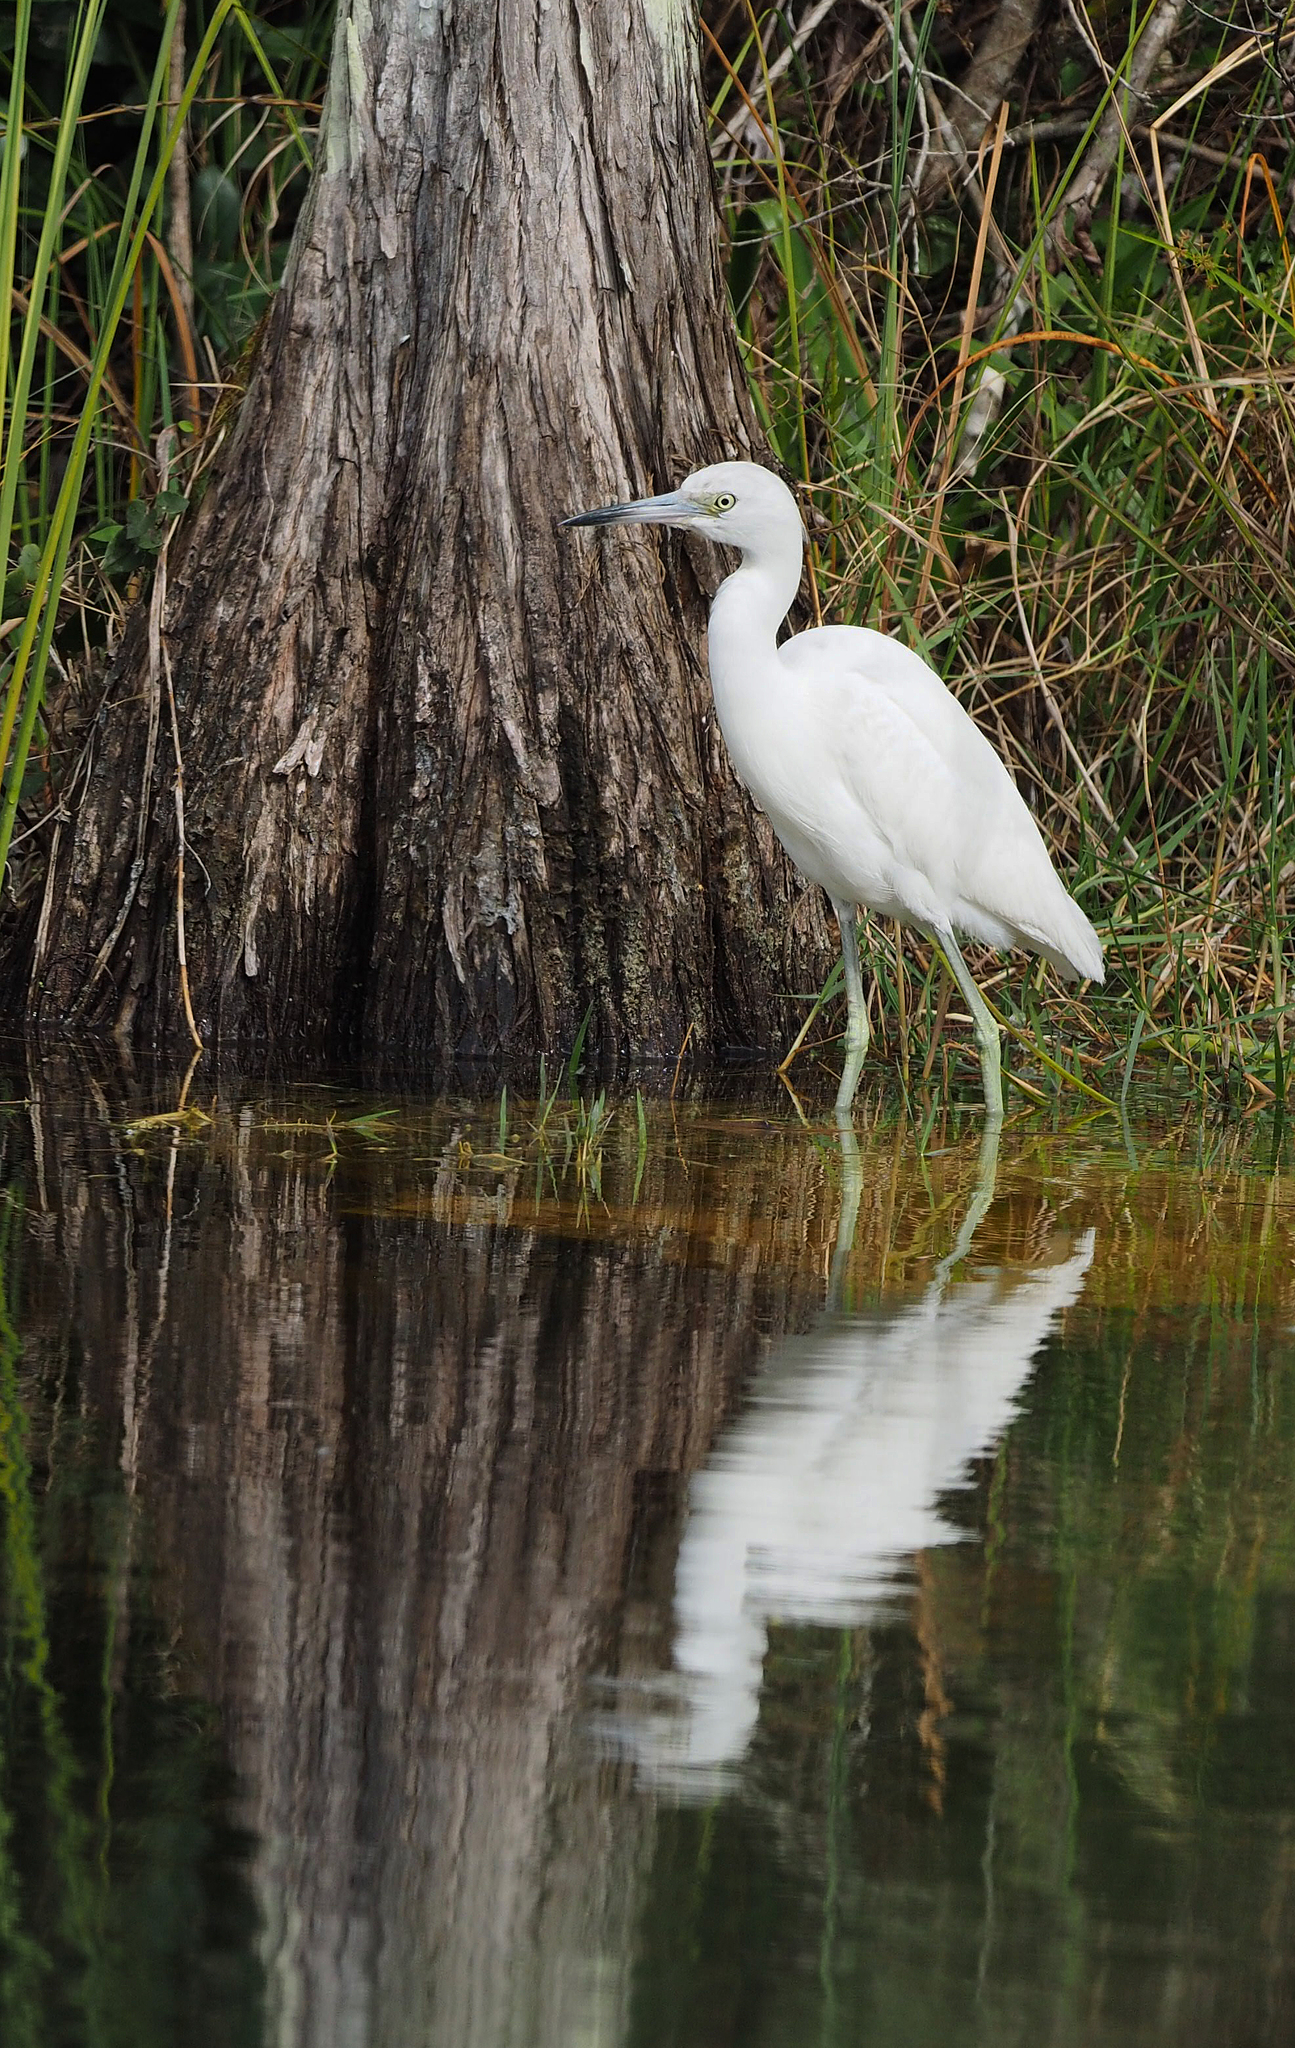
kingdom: Animalia
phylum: Chordata
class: Aves
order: Pelecaniformes
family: Ardeidae
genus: Egretta
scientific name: Egretta caerulea
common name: Little blue heron
